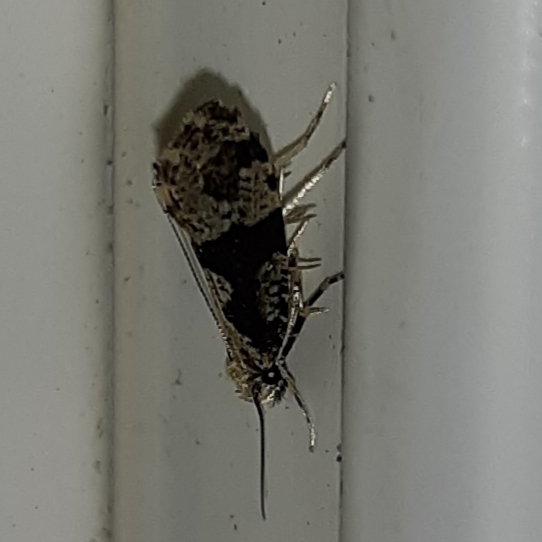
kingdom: Animalia
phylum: Arthropoda
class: Insecta
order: Lepidoptera
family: Tineidae
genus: Scardiella
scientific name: Scardiella approximatella
